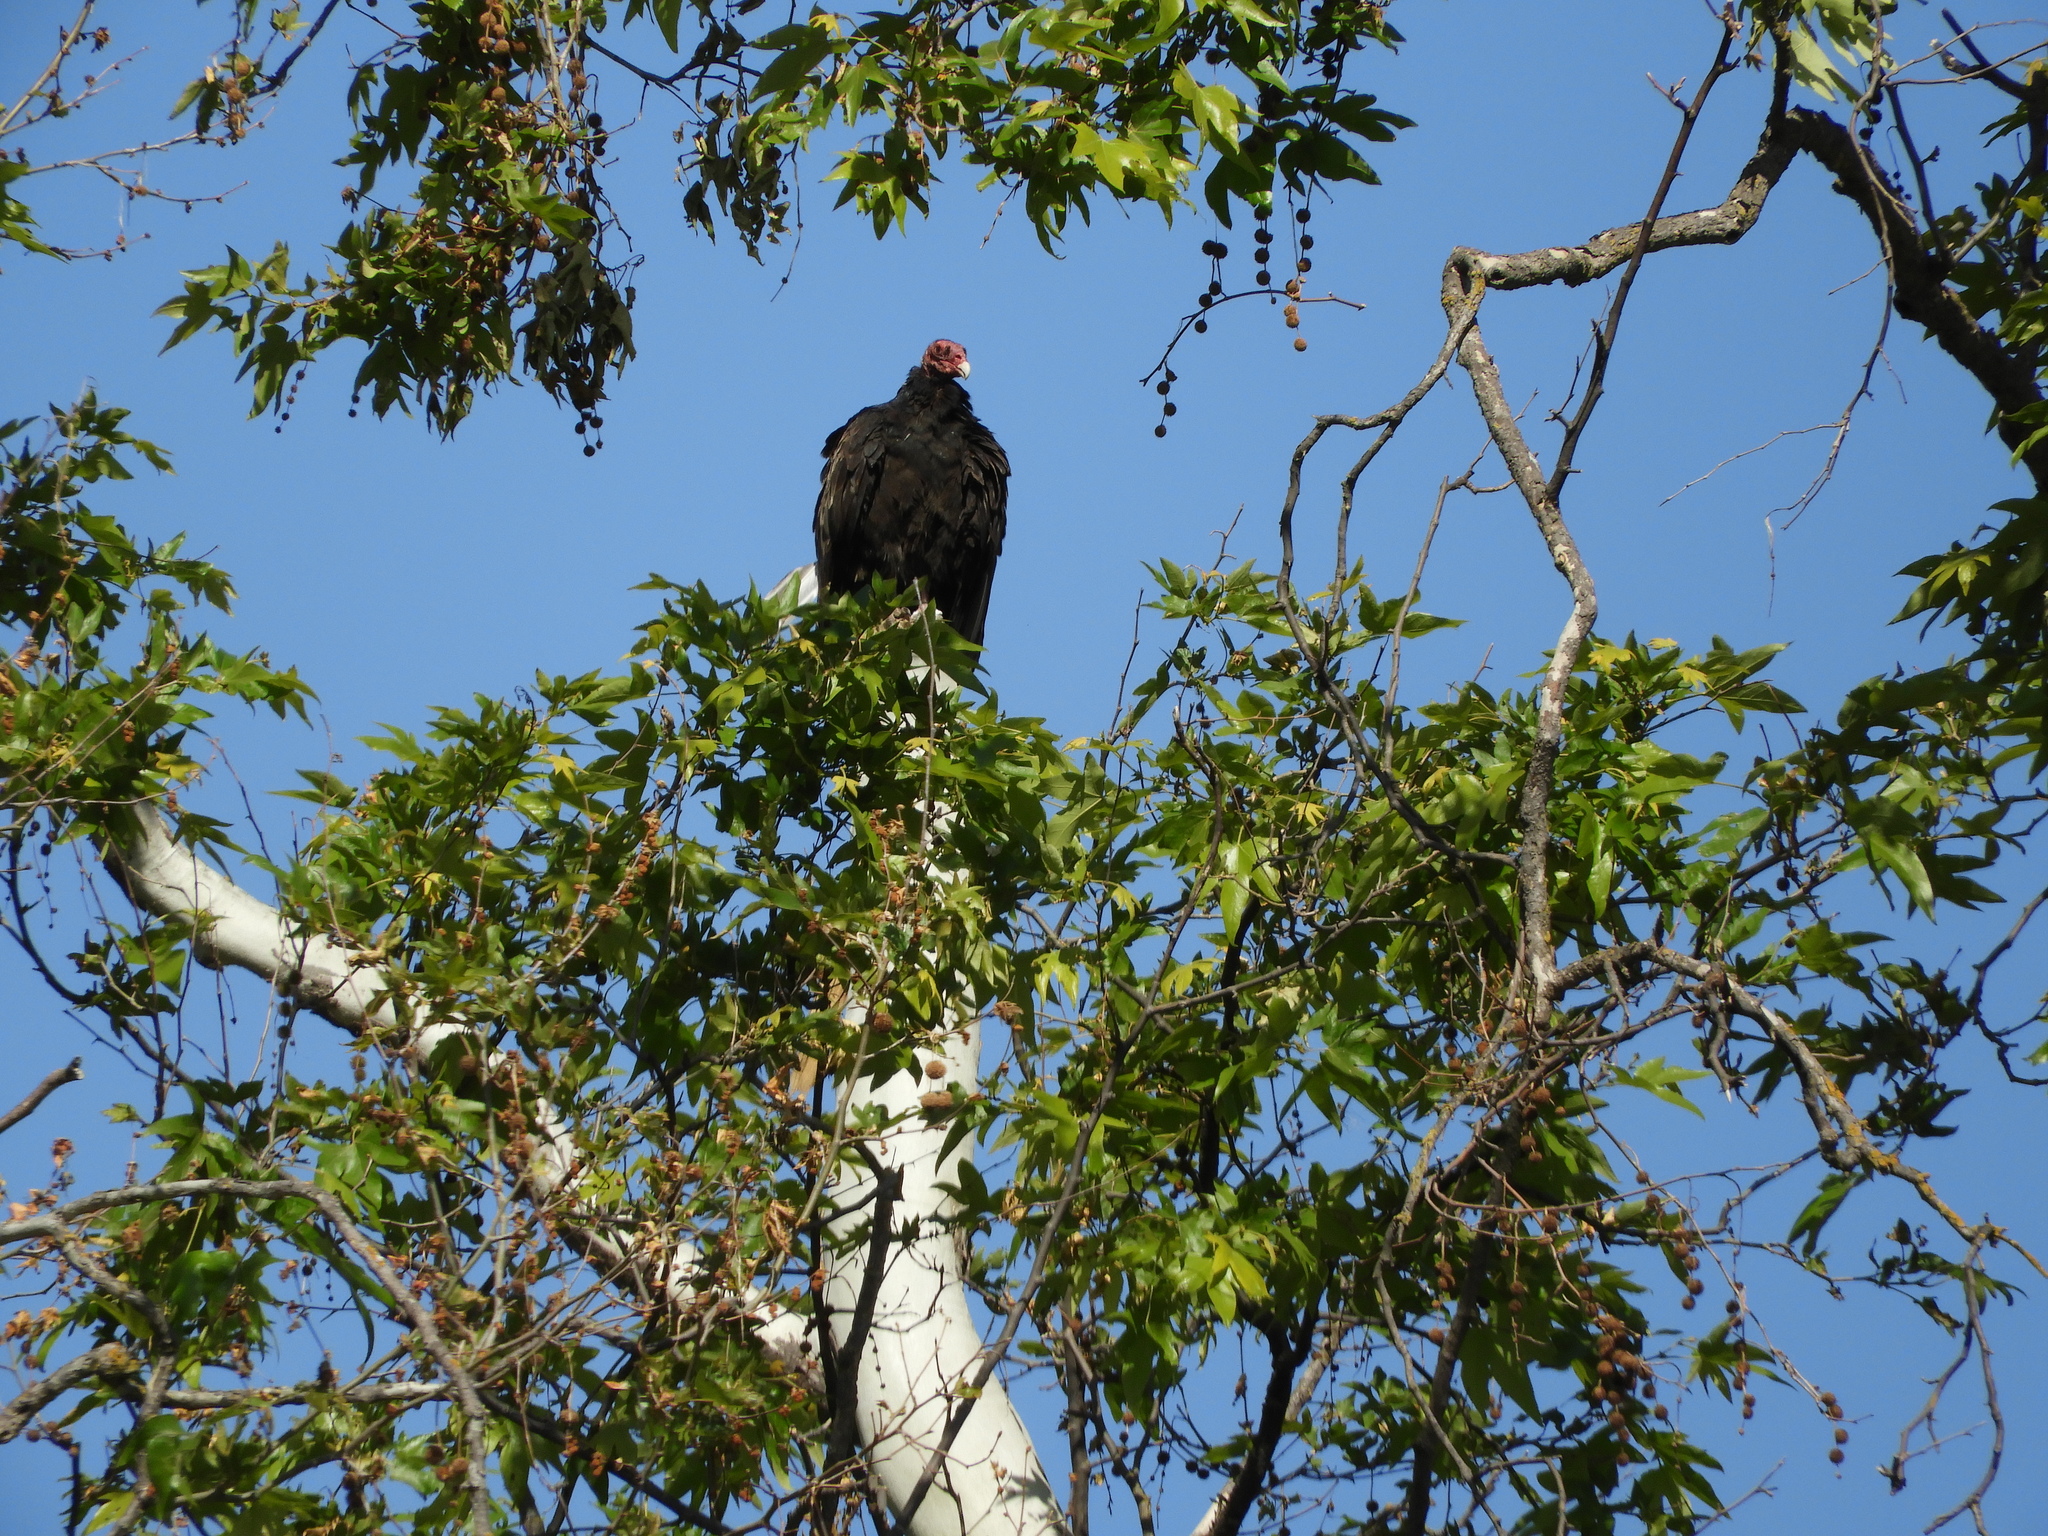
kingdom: Animalia
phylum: Chordata
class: Aves
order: Accipitriformes
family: Cathartidae
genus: Cathartes
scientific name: Cathartes aura
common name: Turkey vulture
